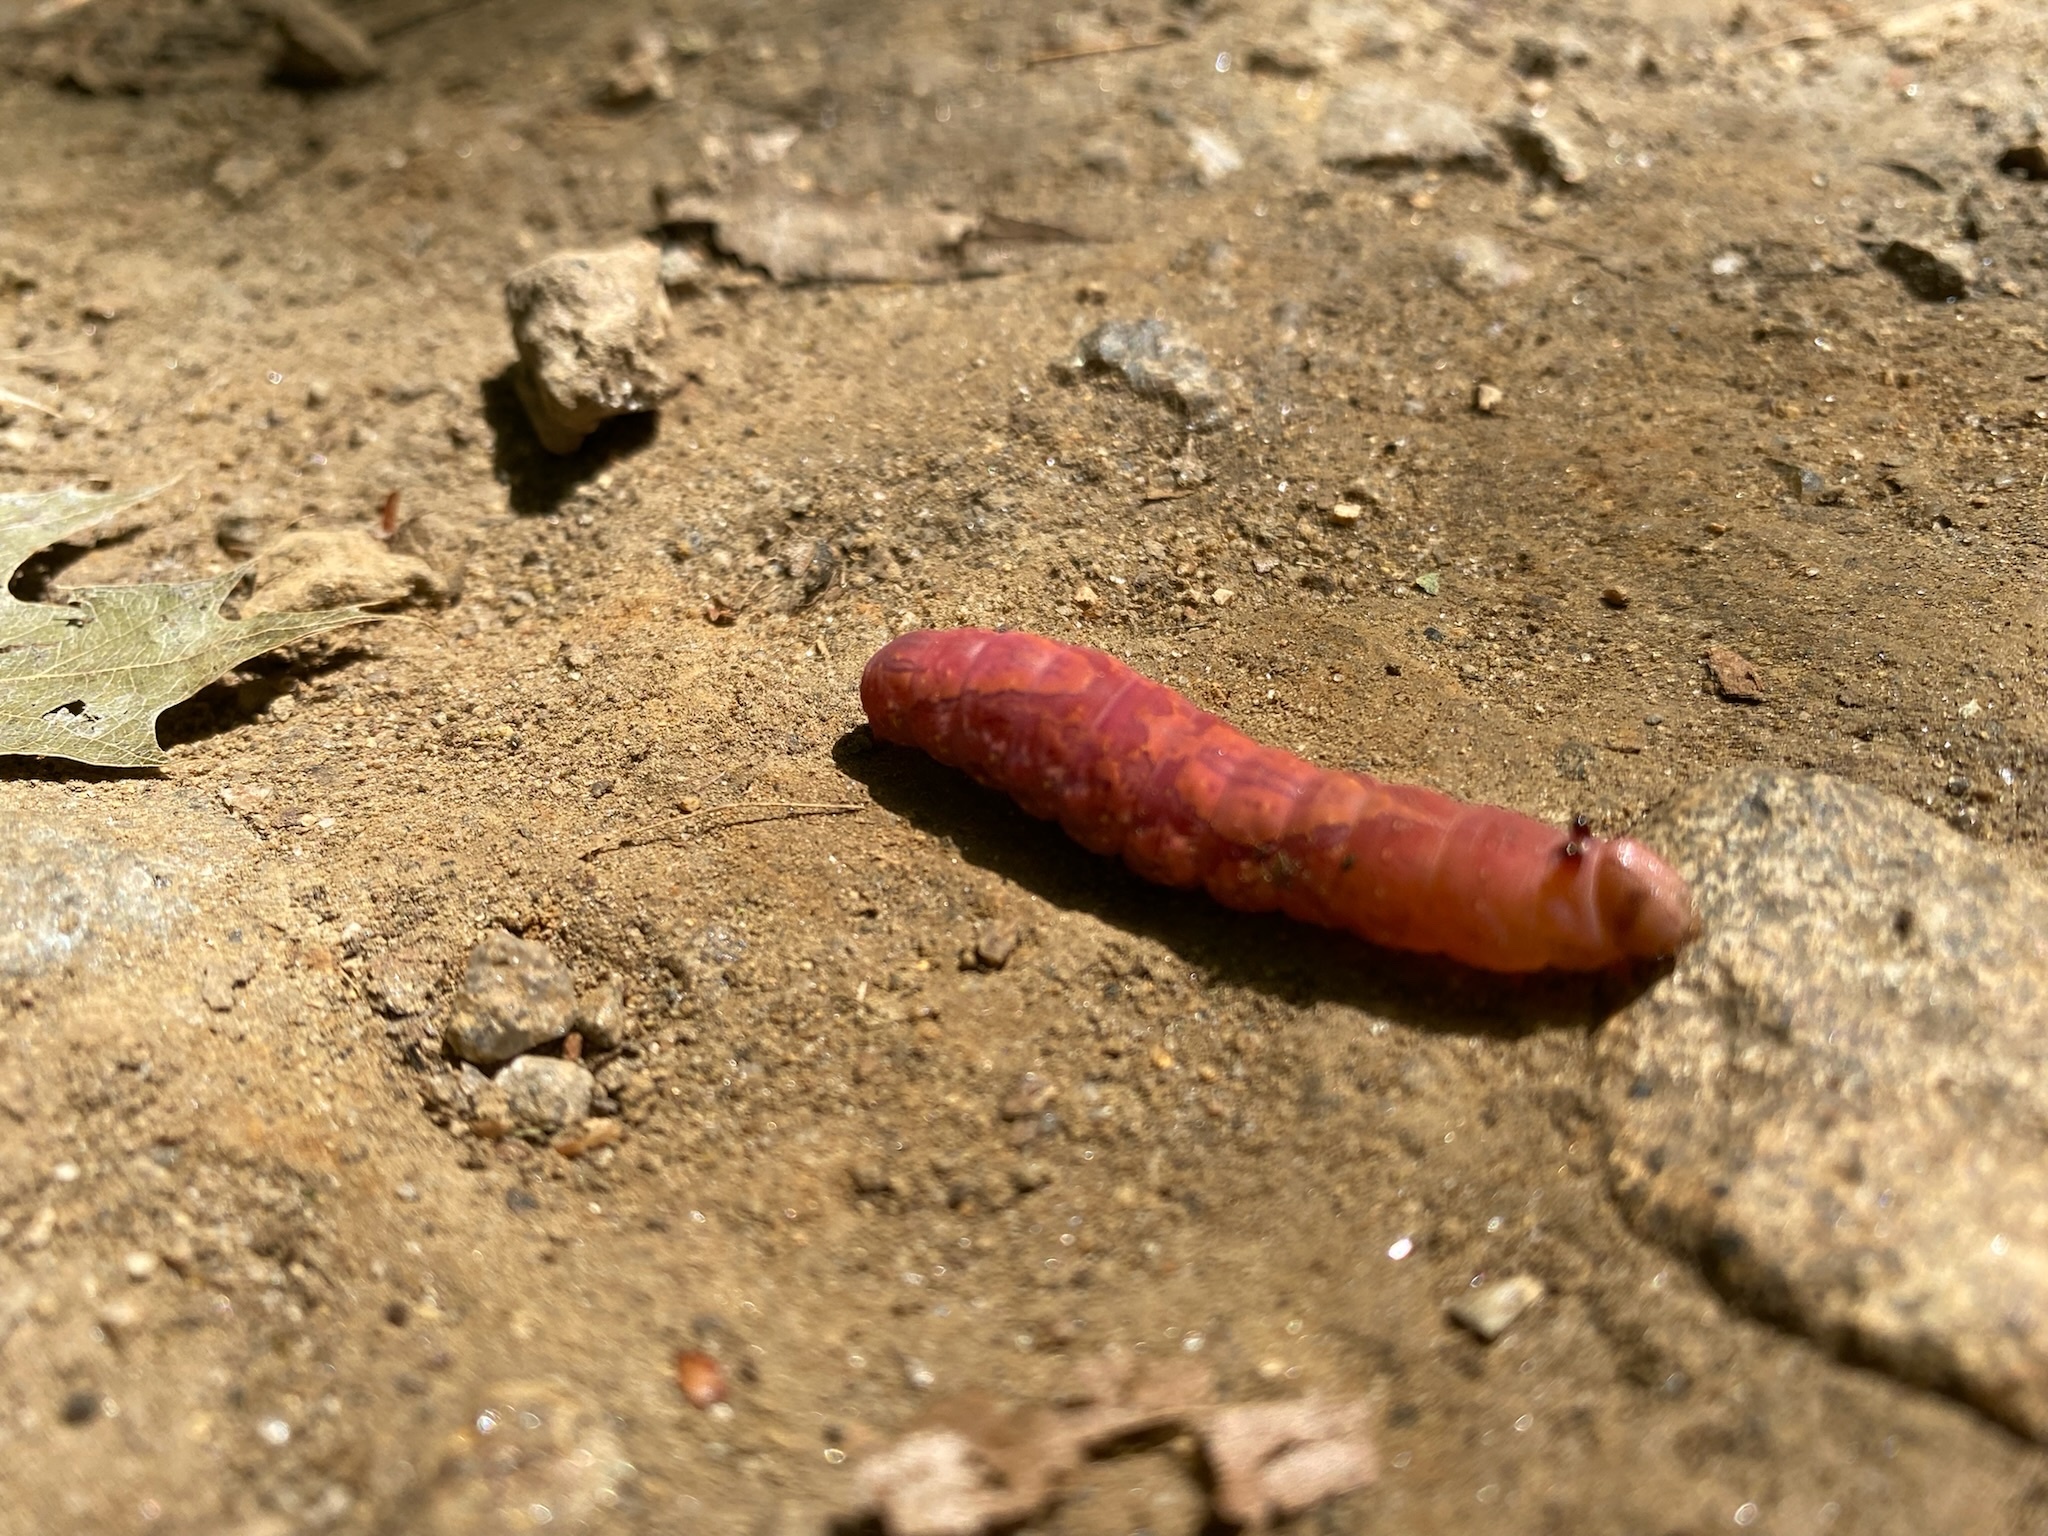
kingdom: Animalia
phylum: Arthropoda
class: Insecta
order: Lepidoptera
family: Notodontidae
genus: Heterocampa
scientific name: Heterocampa
